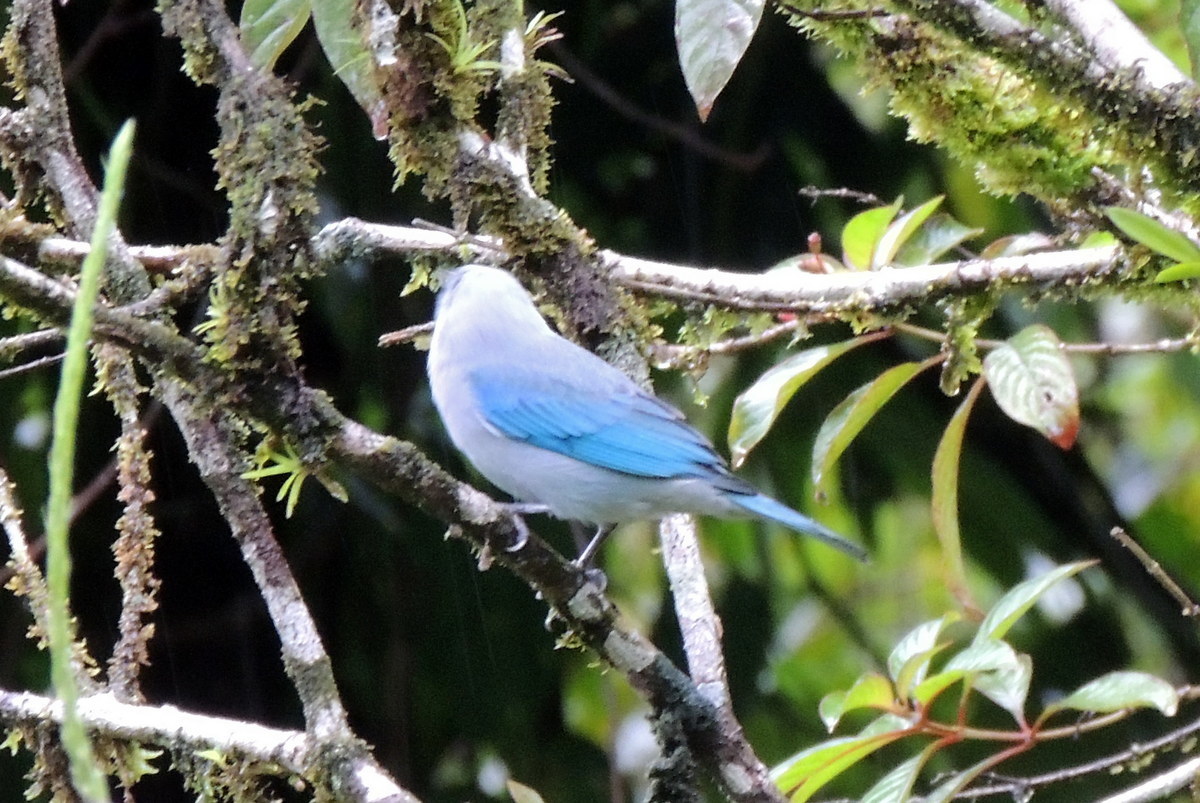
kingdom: Animalia
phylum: Chordata
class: Aves
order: Passeriformes
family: Thraupidae
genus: Thraupis
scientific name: Thraupis episcopus
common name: Blue-grey tanager
